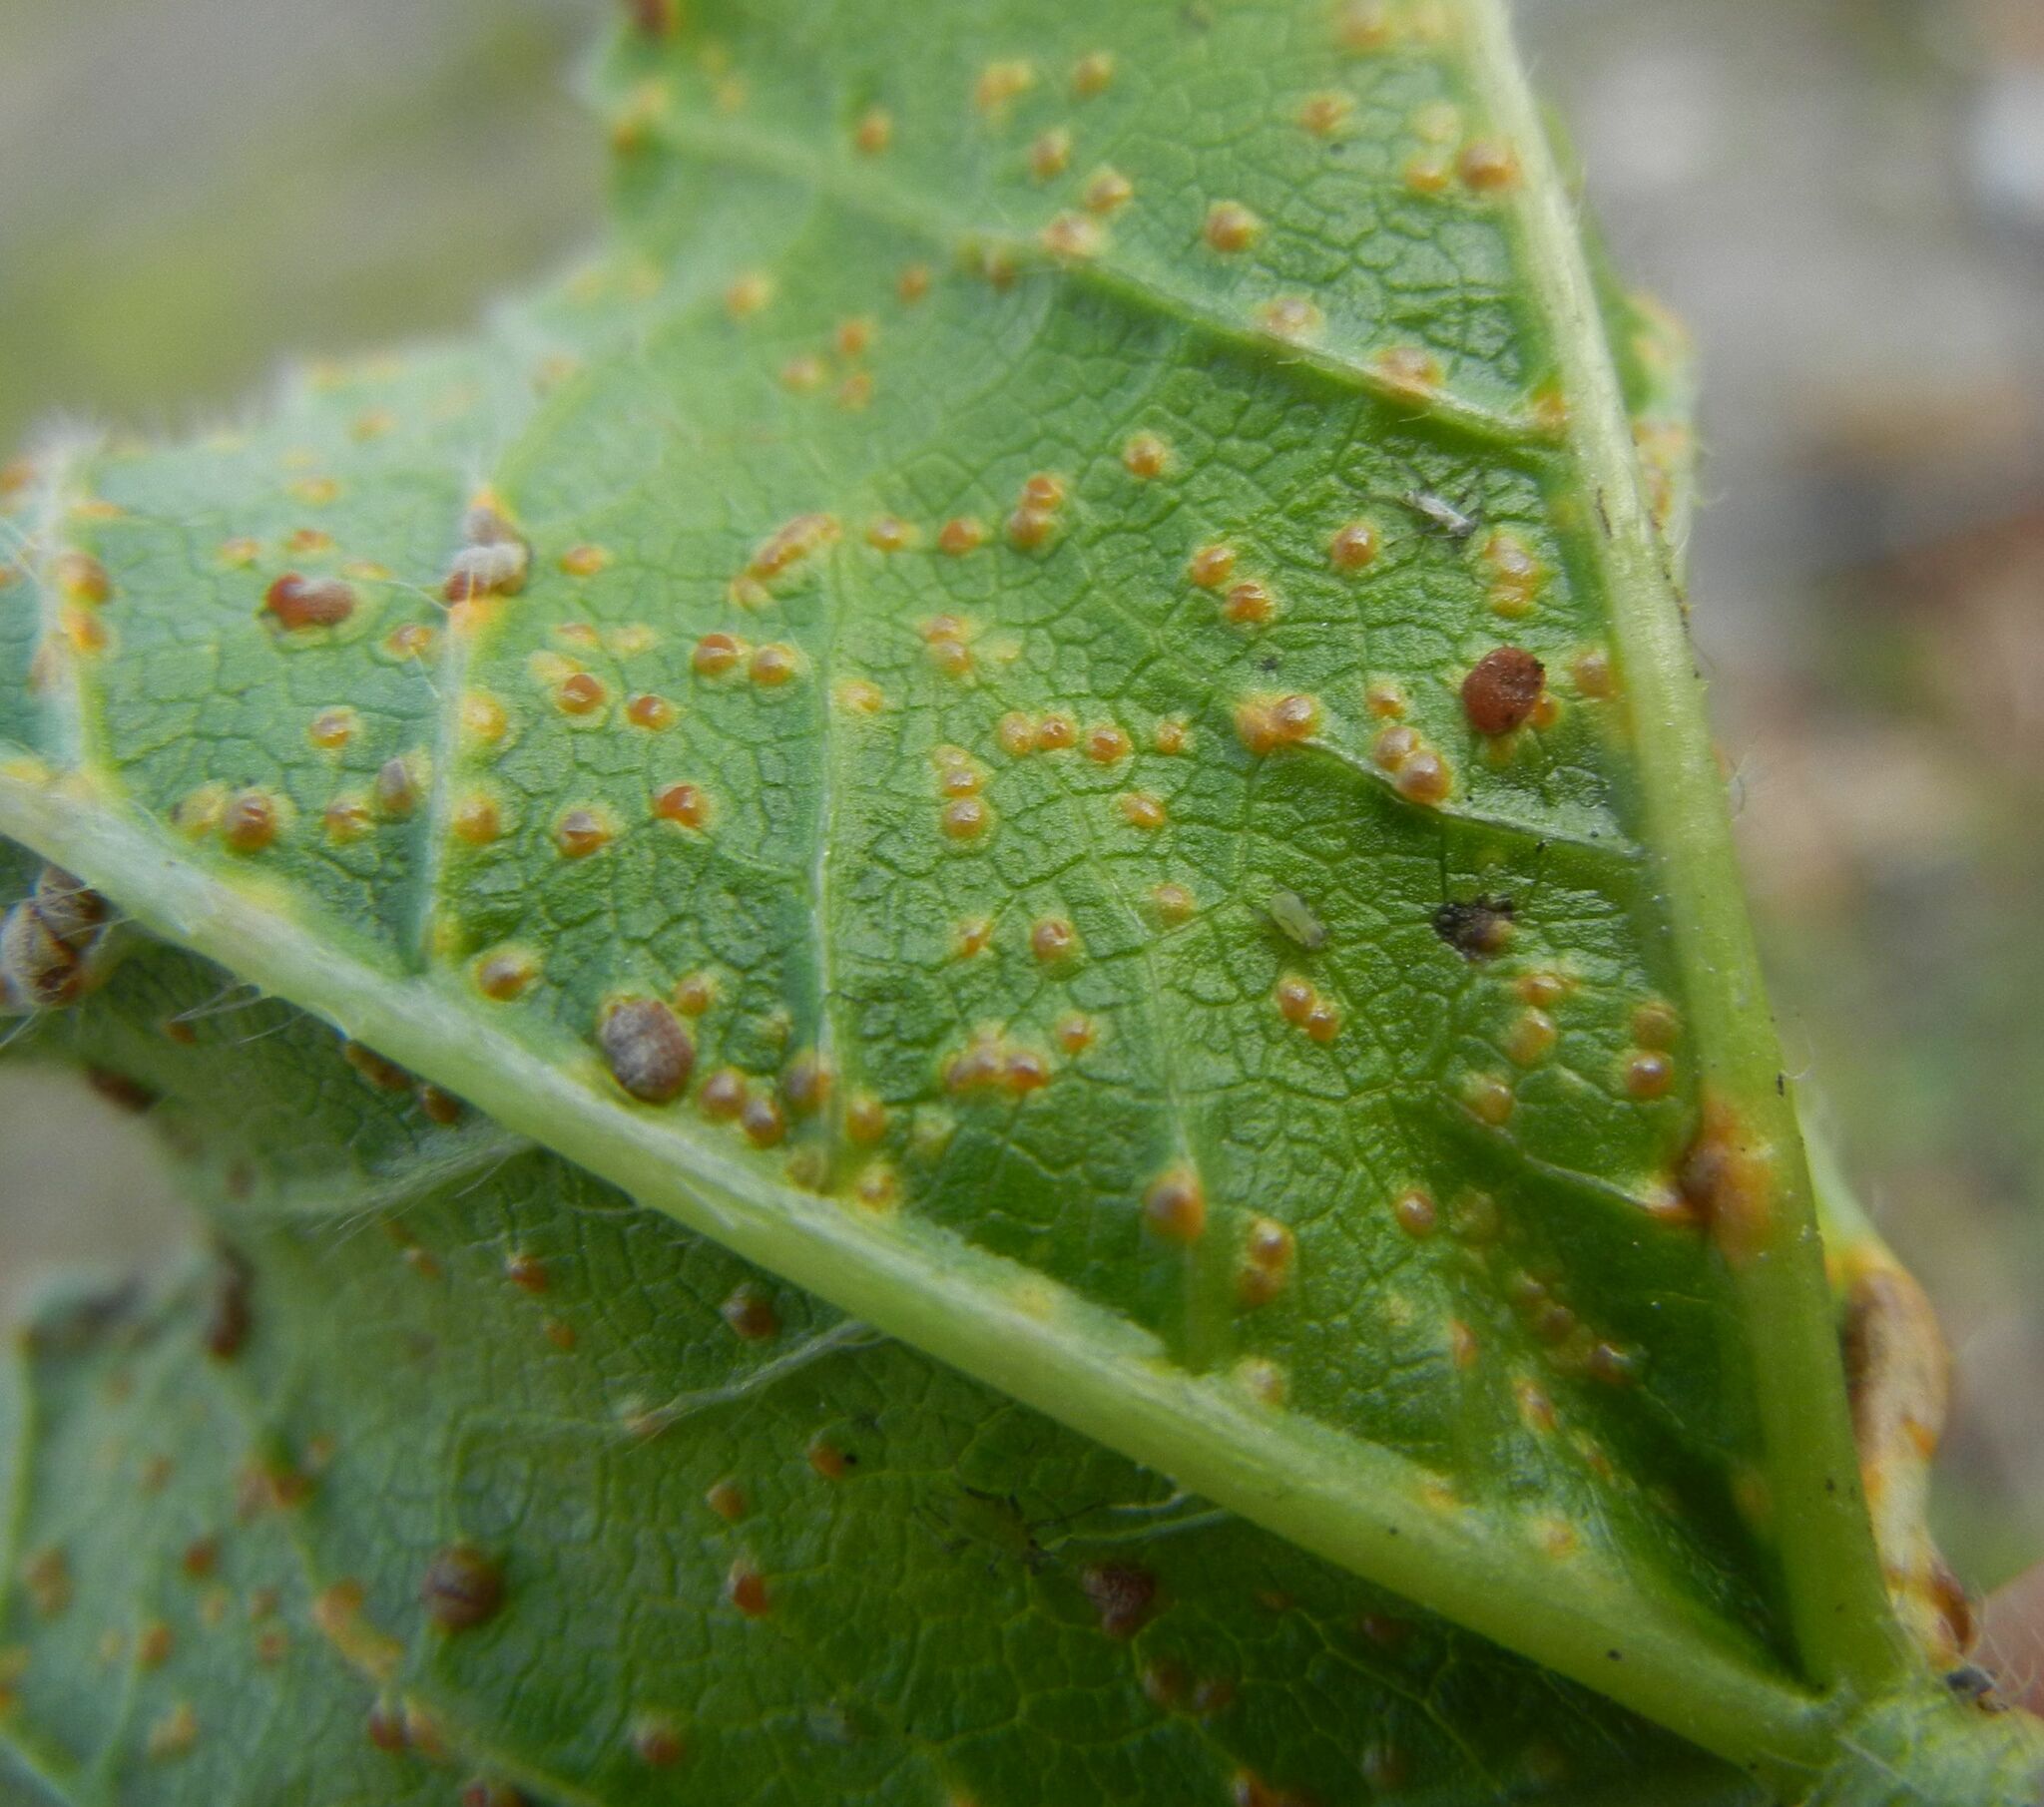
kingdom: Fungi
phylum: Basidiomycota
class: Pucciniomycetes
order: Pucciniales
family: Pucciniaceae
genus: Puccinia
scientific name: Puccinia malvacearum
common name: Hollyhock rust
